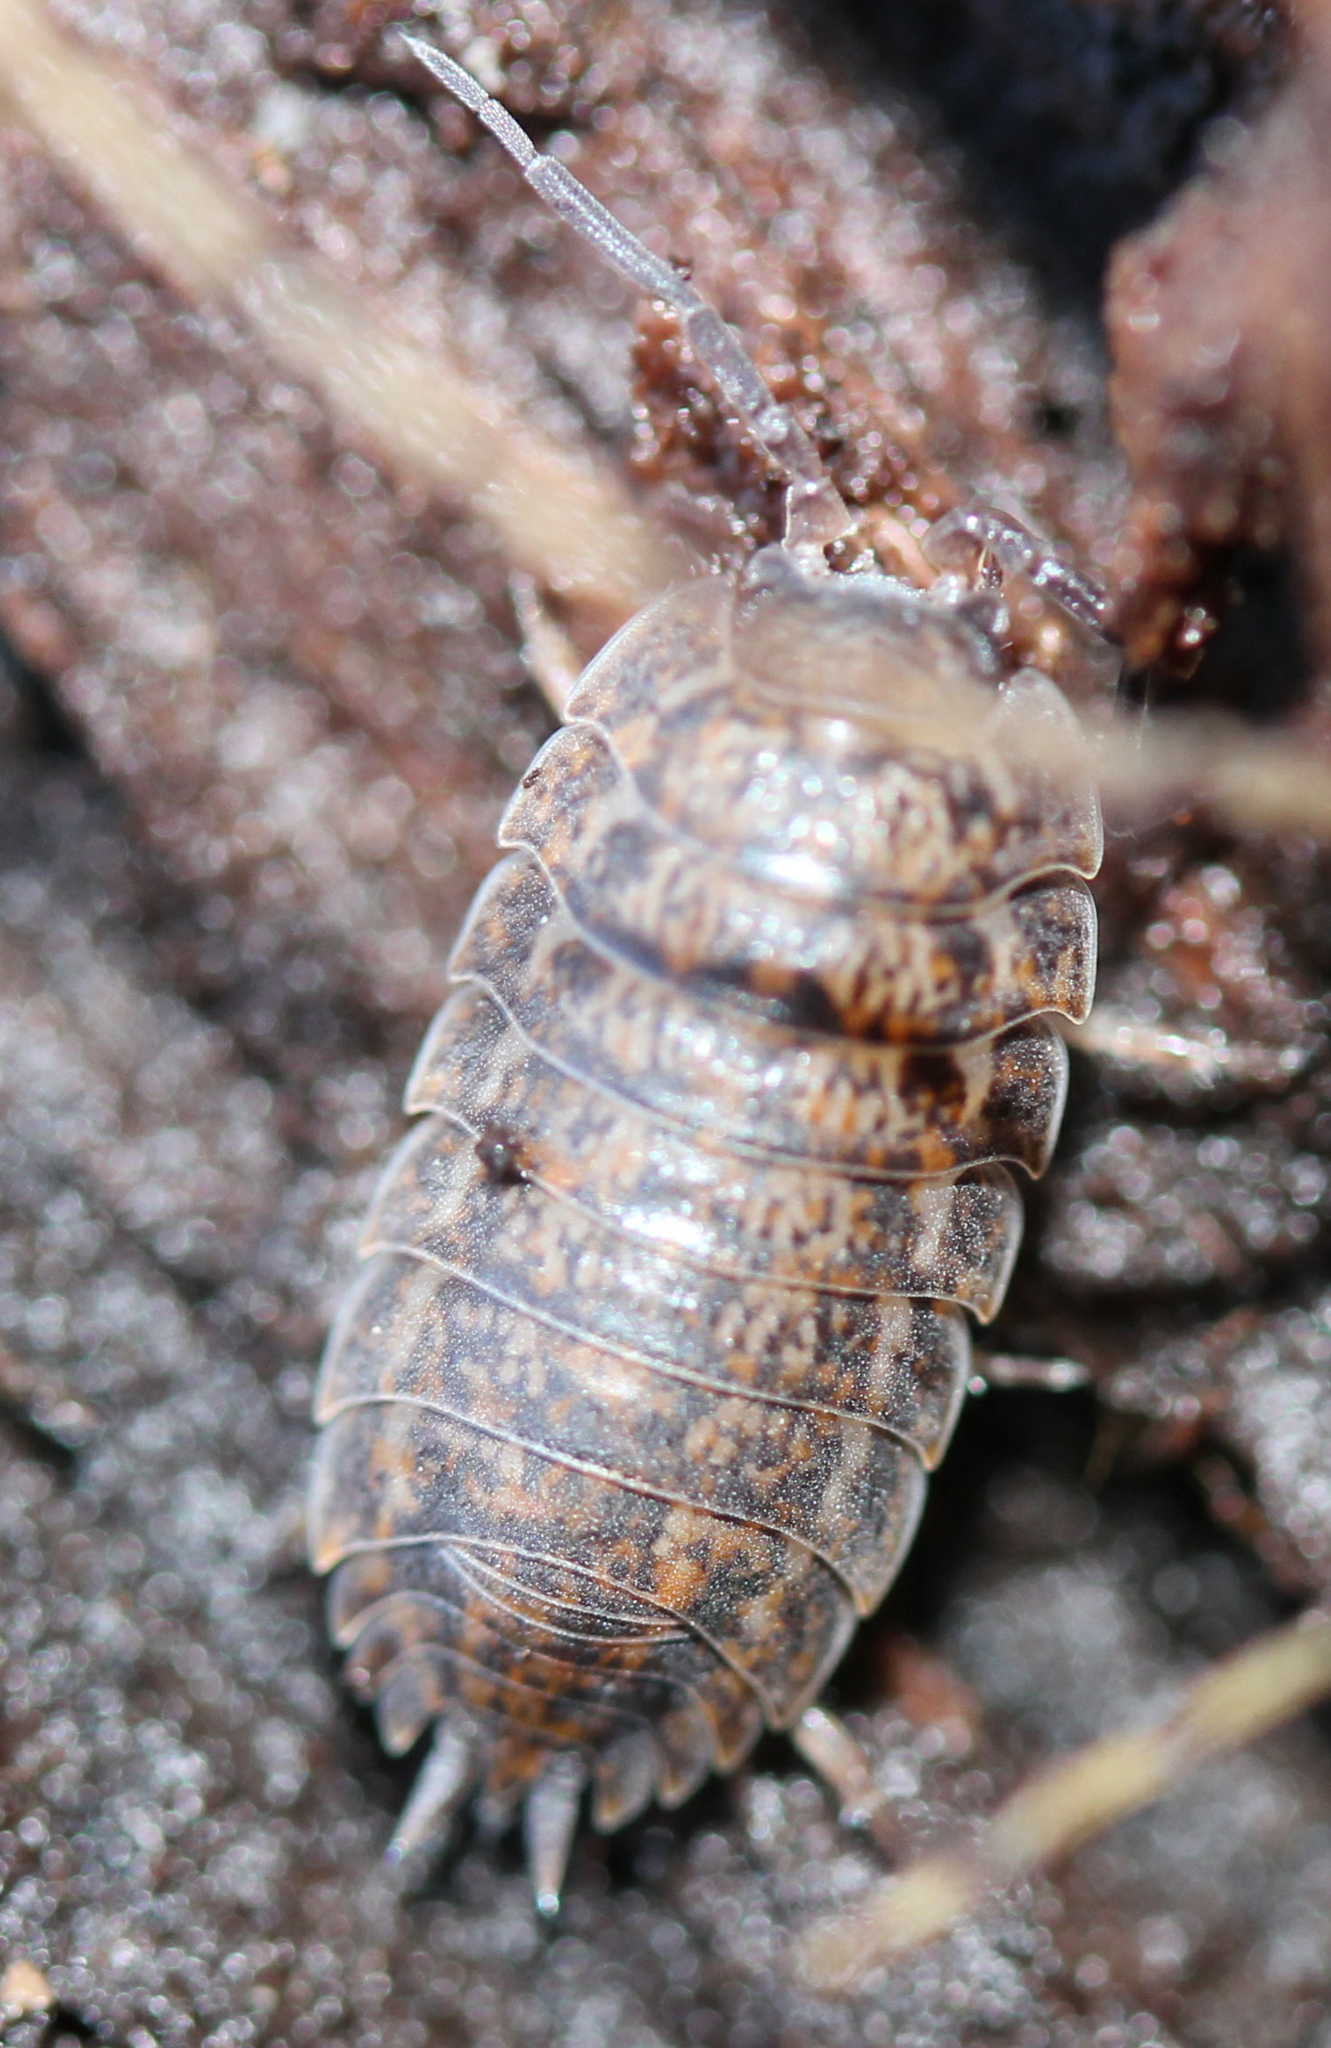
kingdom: Animalia
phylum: Arthropoda
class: Malacostraca
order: Isopoda
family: Trachelipodidae
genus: Trachelipus
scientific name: Trachelipus rathkii
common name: Isopod
